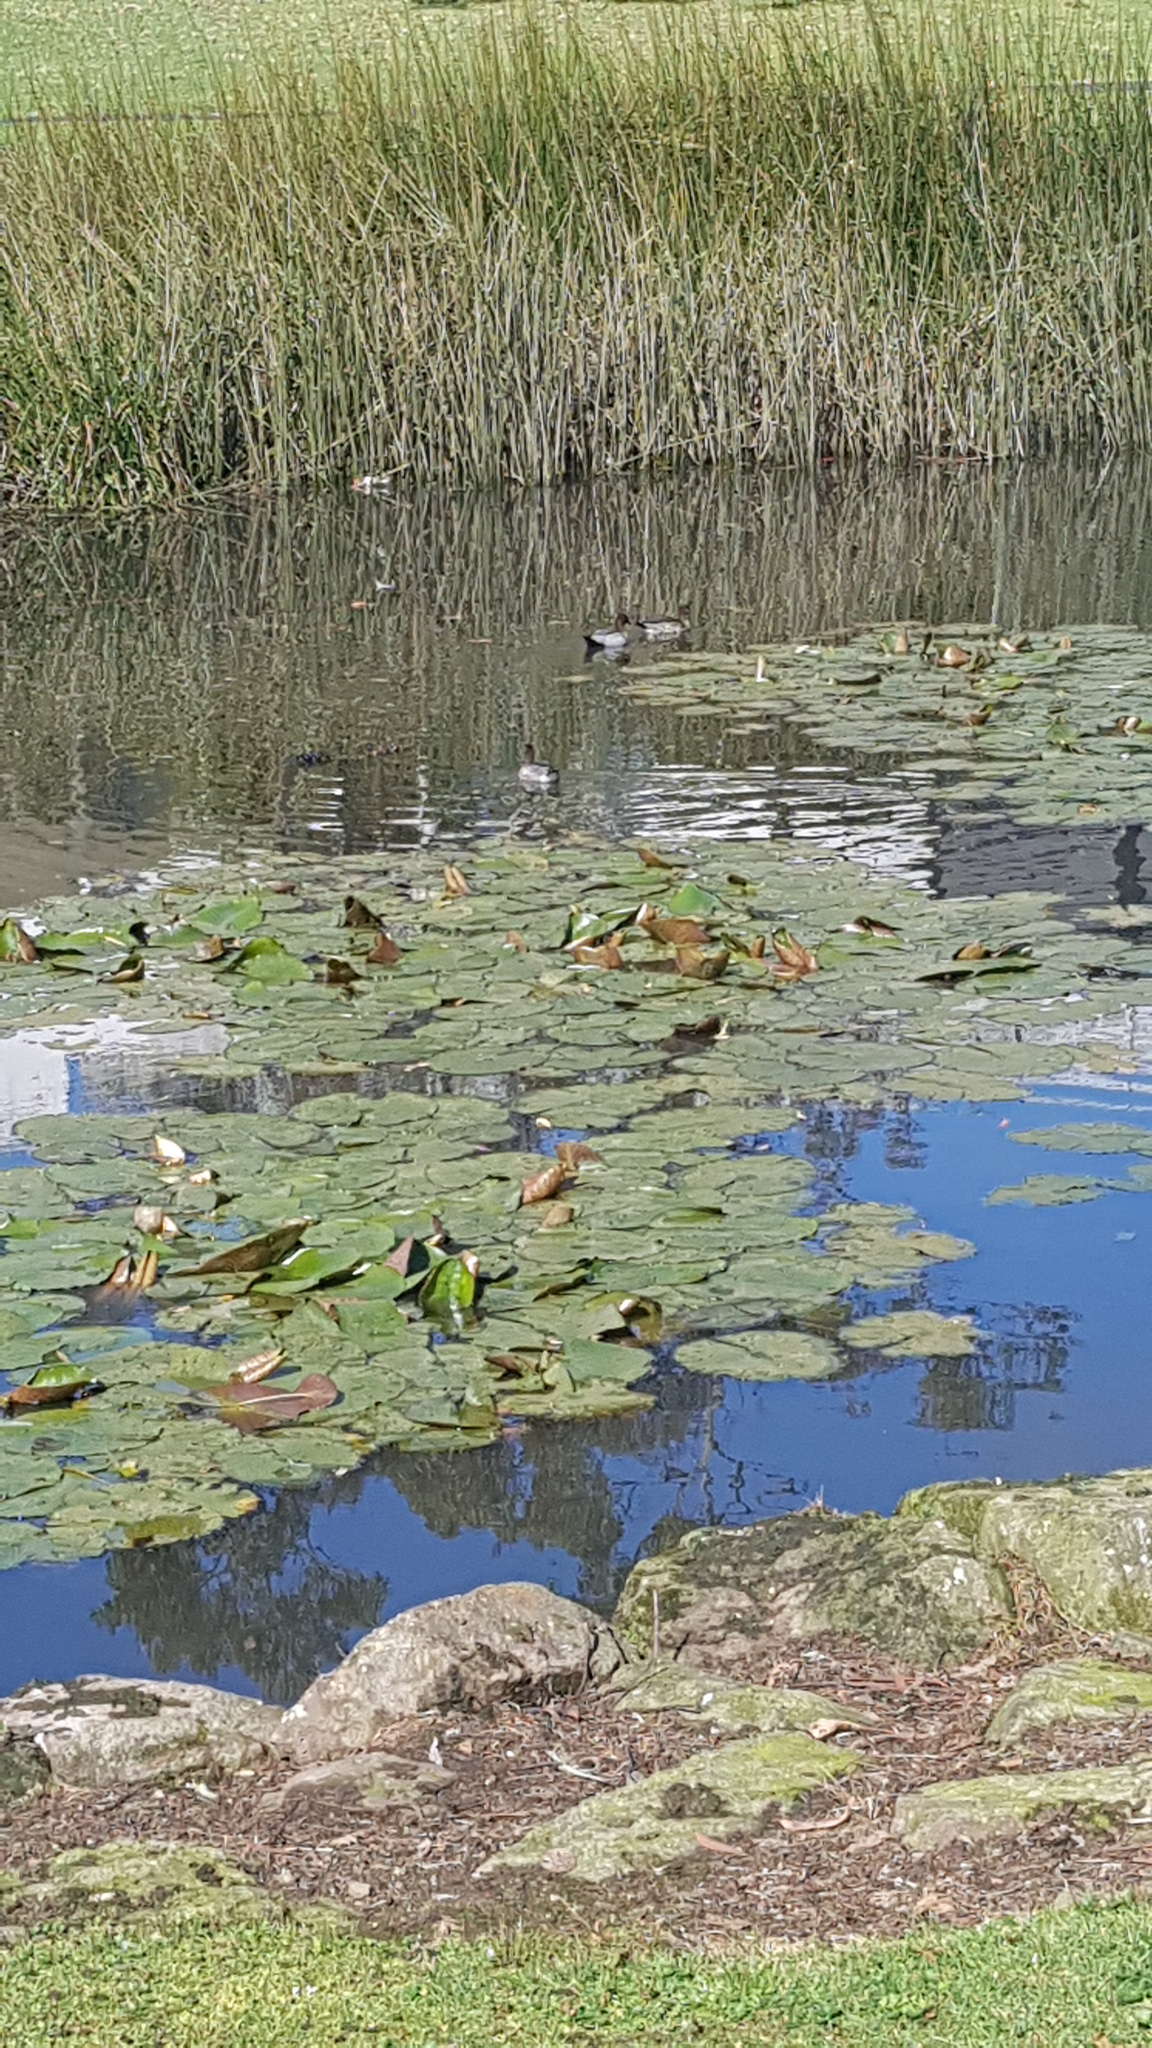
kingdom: Animalia
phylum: Chordata
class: Aves
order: Anseriformes
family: Anatidae
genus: Chenonetta
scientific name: Chenonetta jubata
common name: Maned duck
